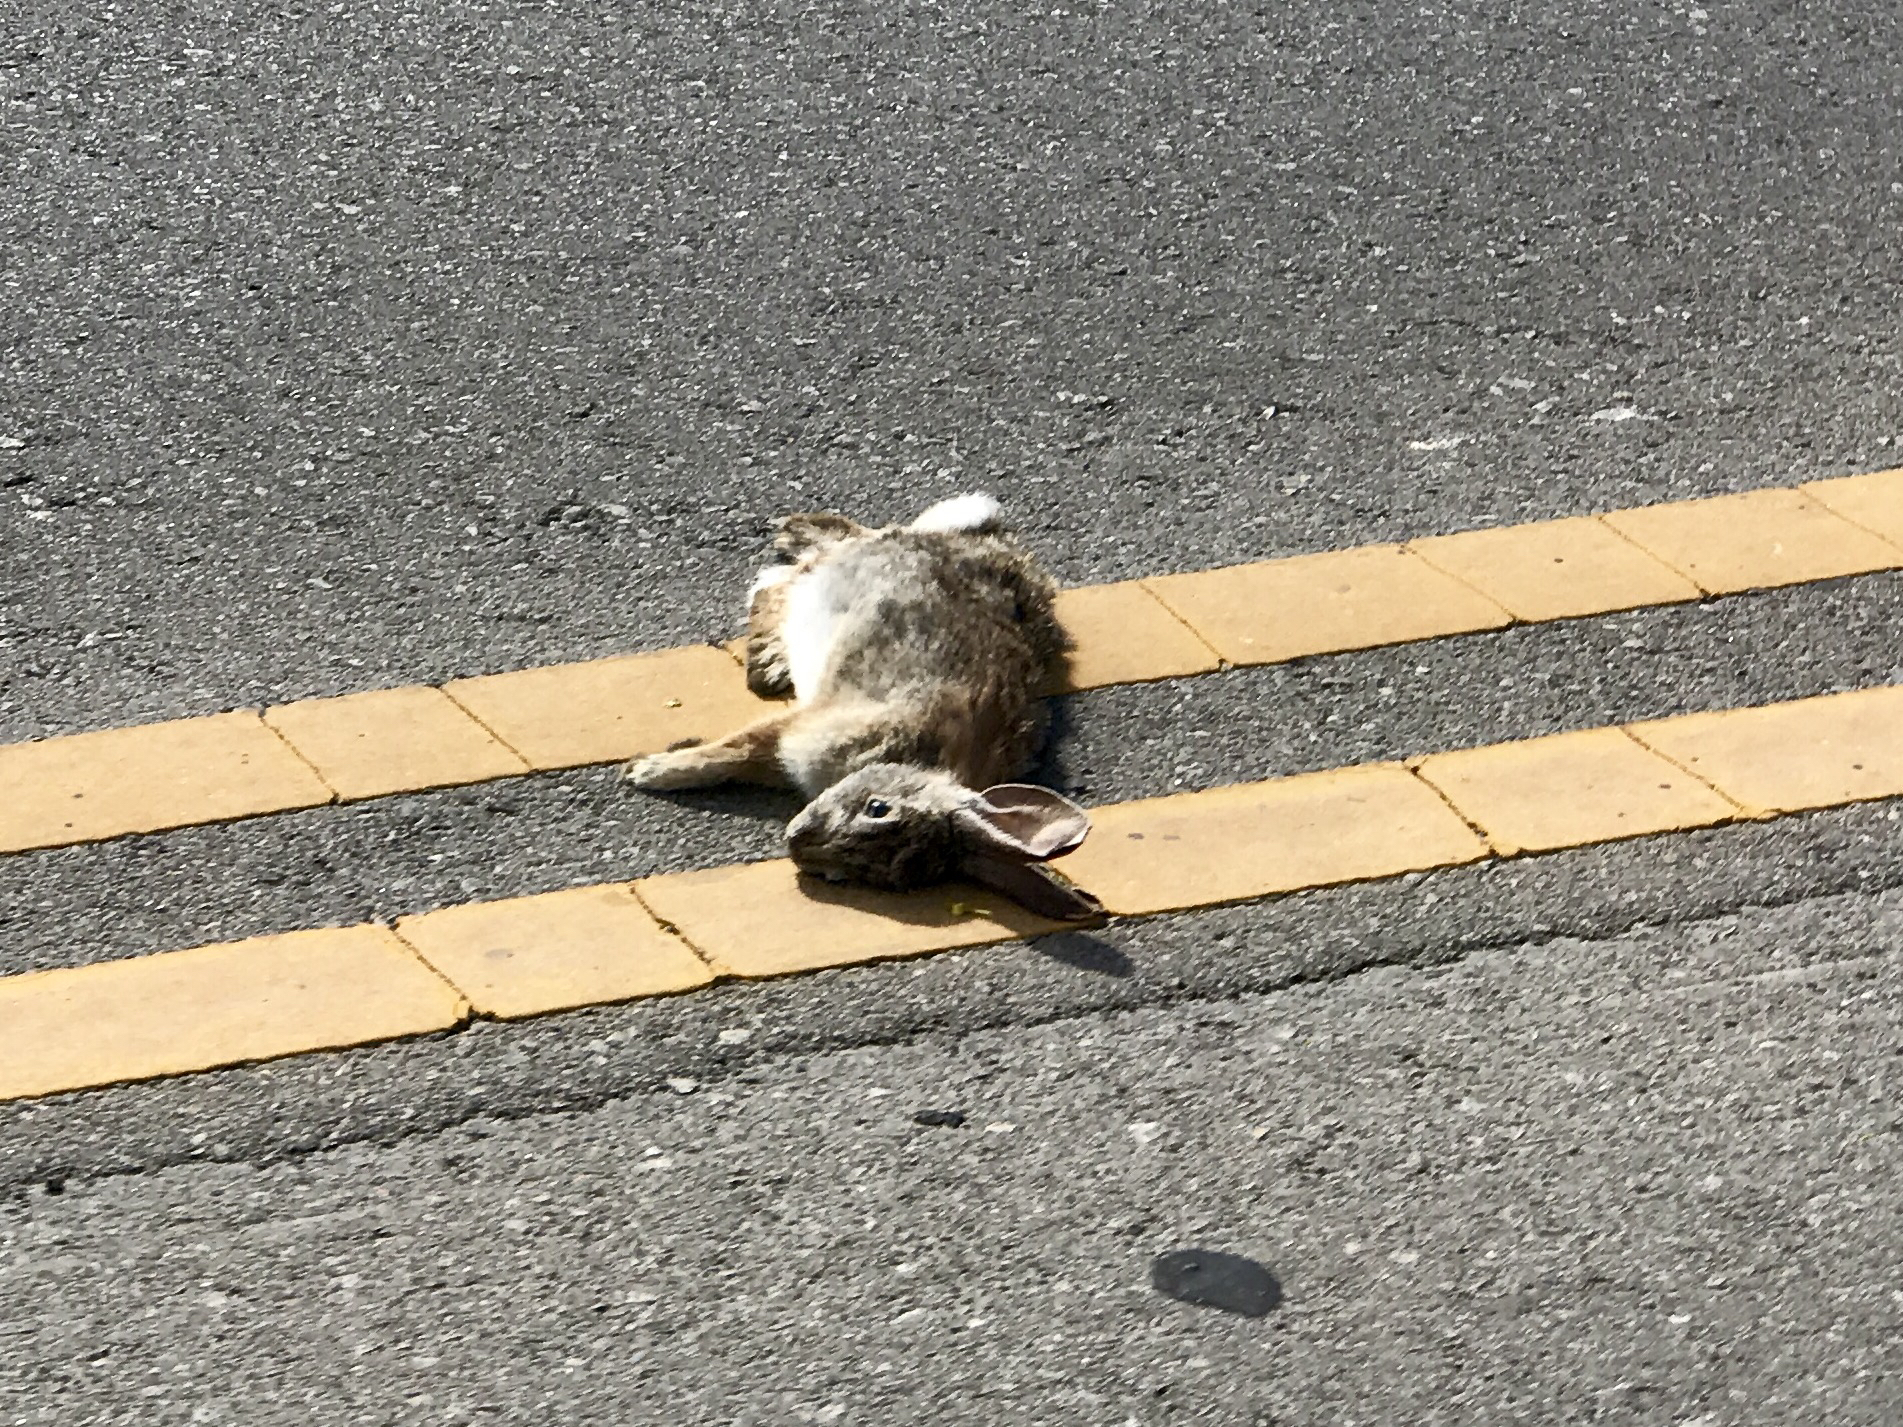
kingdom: Animalia
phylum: Chordata
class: Mammalia
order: Lagomorpha
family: Leporidae
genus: Sylvilagus
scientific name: Sylvilagus audubonii
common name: Desert cottontail
